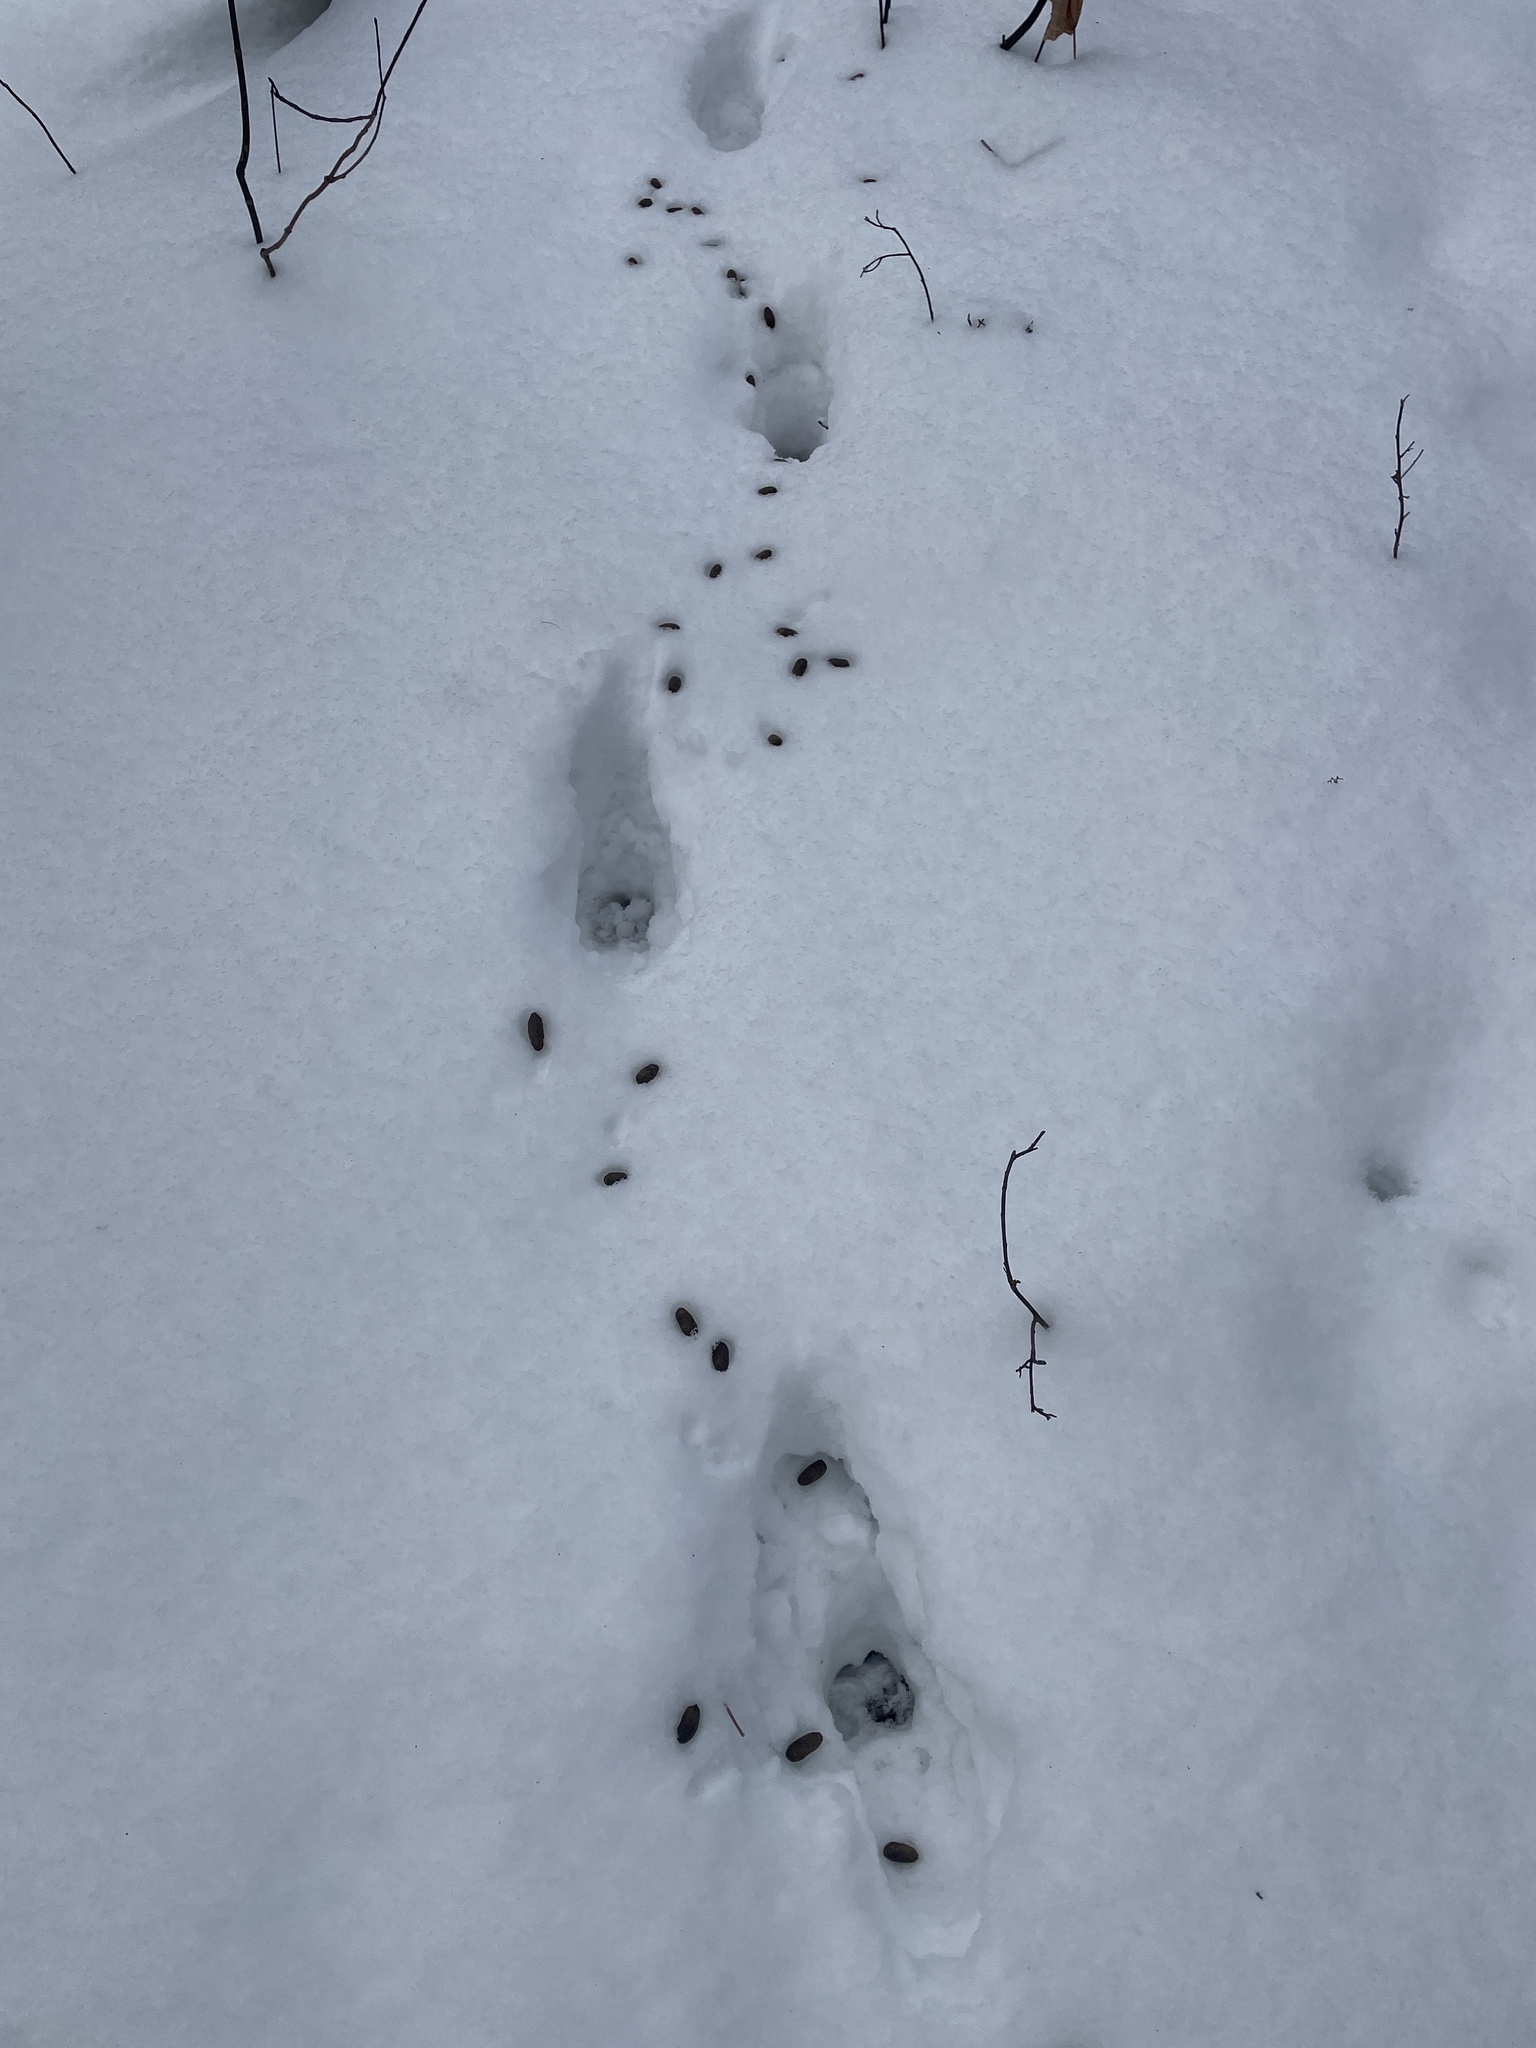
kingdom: Animalia
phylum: Chordata
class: Mammalia
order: Artiodactyla
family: Cervidae
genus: Odocoileus
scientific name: Odocoileus virginianus
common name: White-tailed deer
